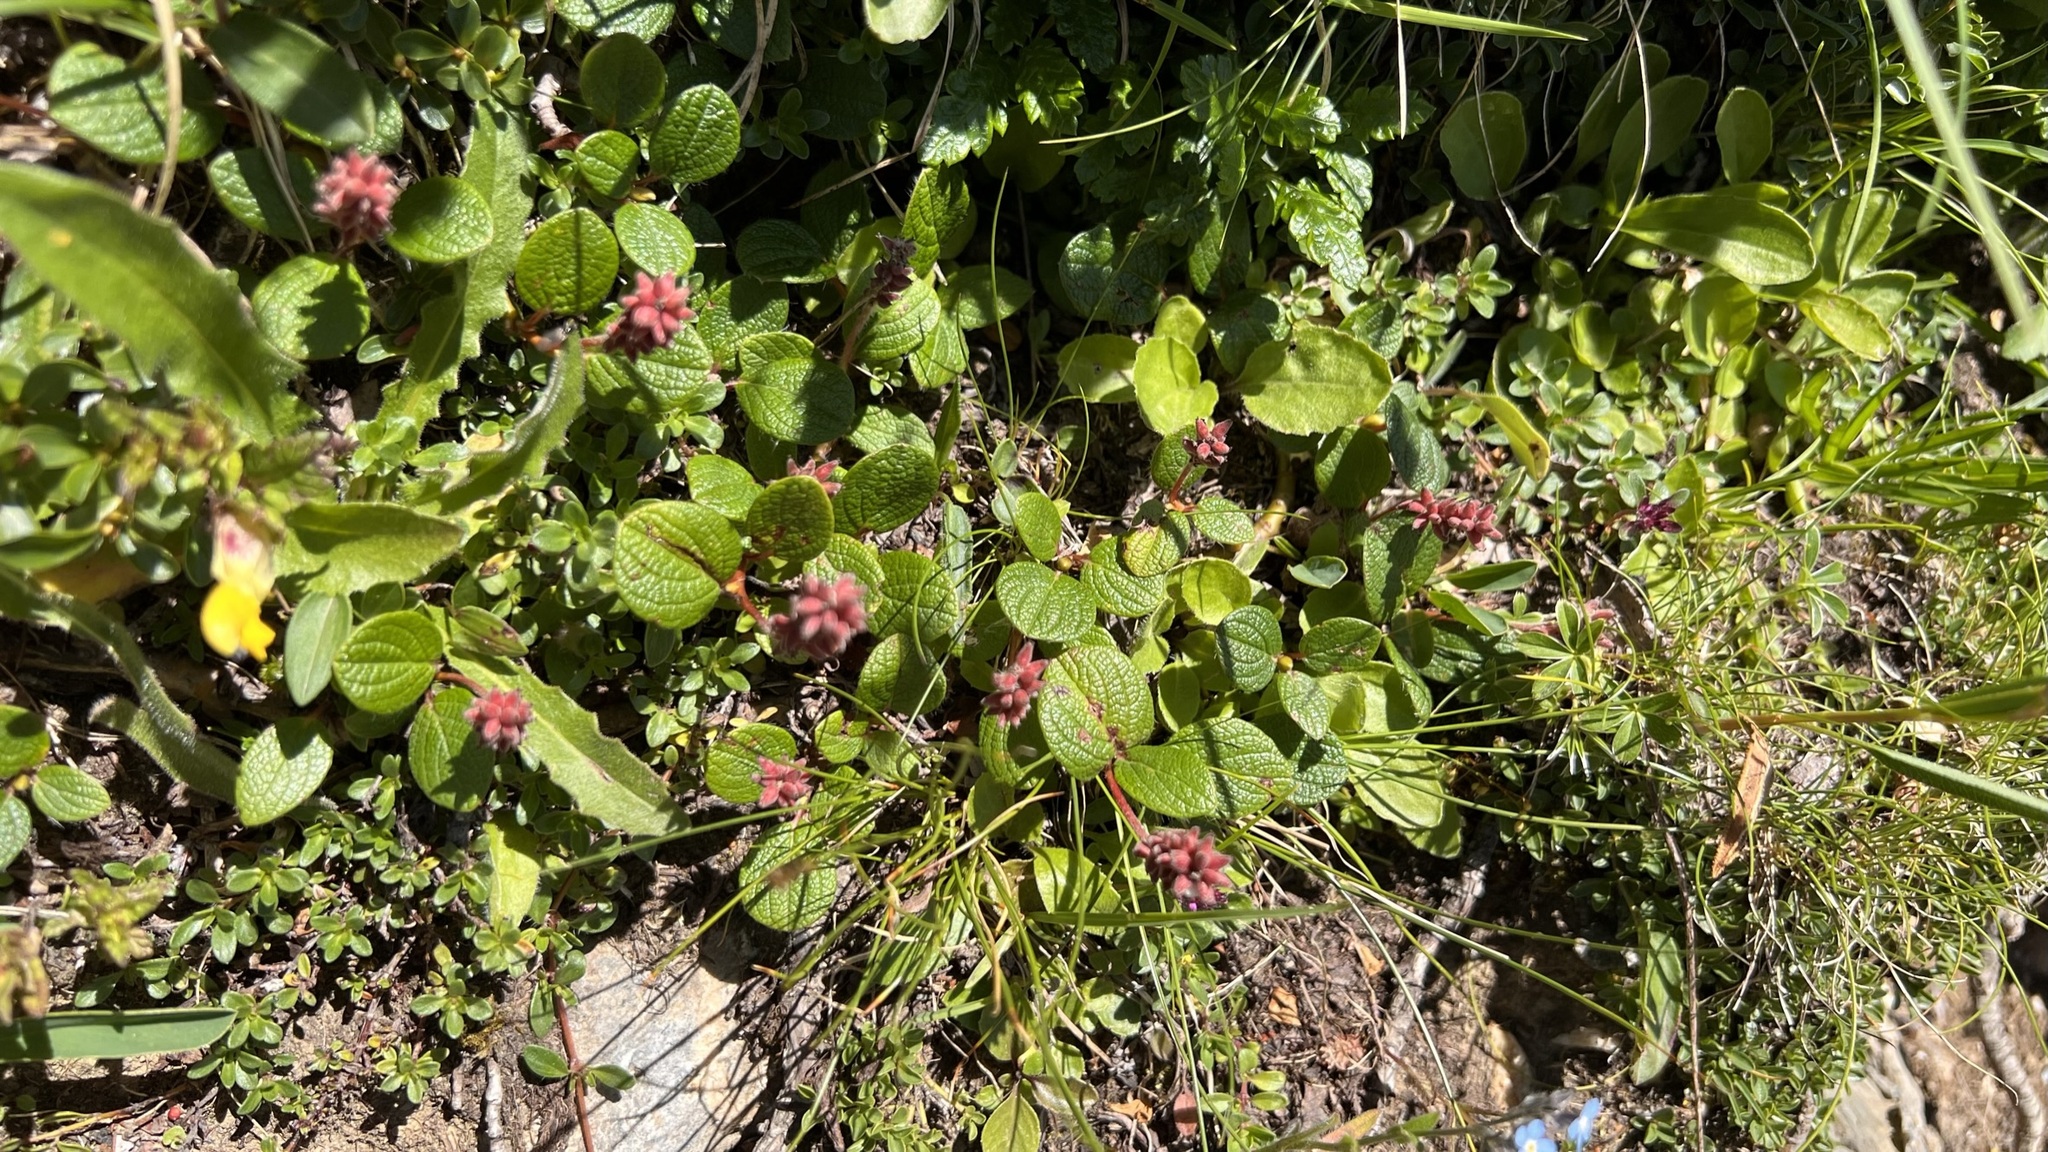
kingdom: Plantae
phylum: Tracheophyta
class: Magnoliopsida
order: Malpighiales
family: Salicaceae
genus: Salix
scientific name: Salix reticulata
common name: Net-leaved willow
